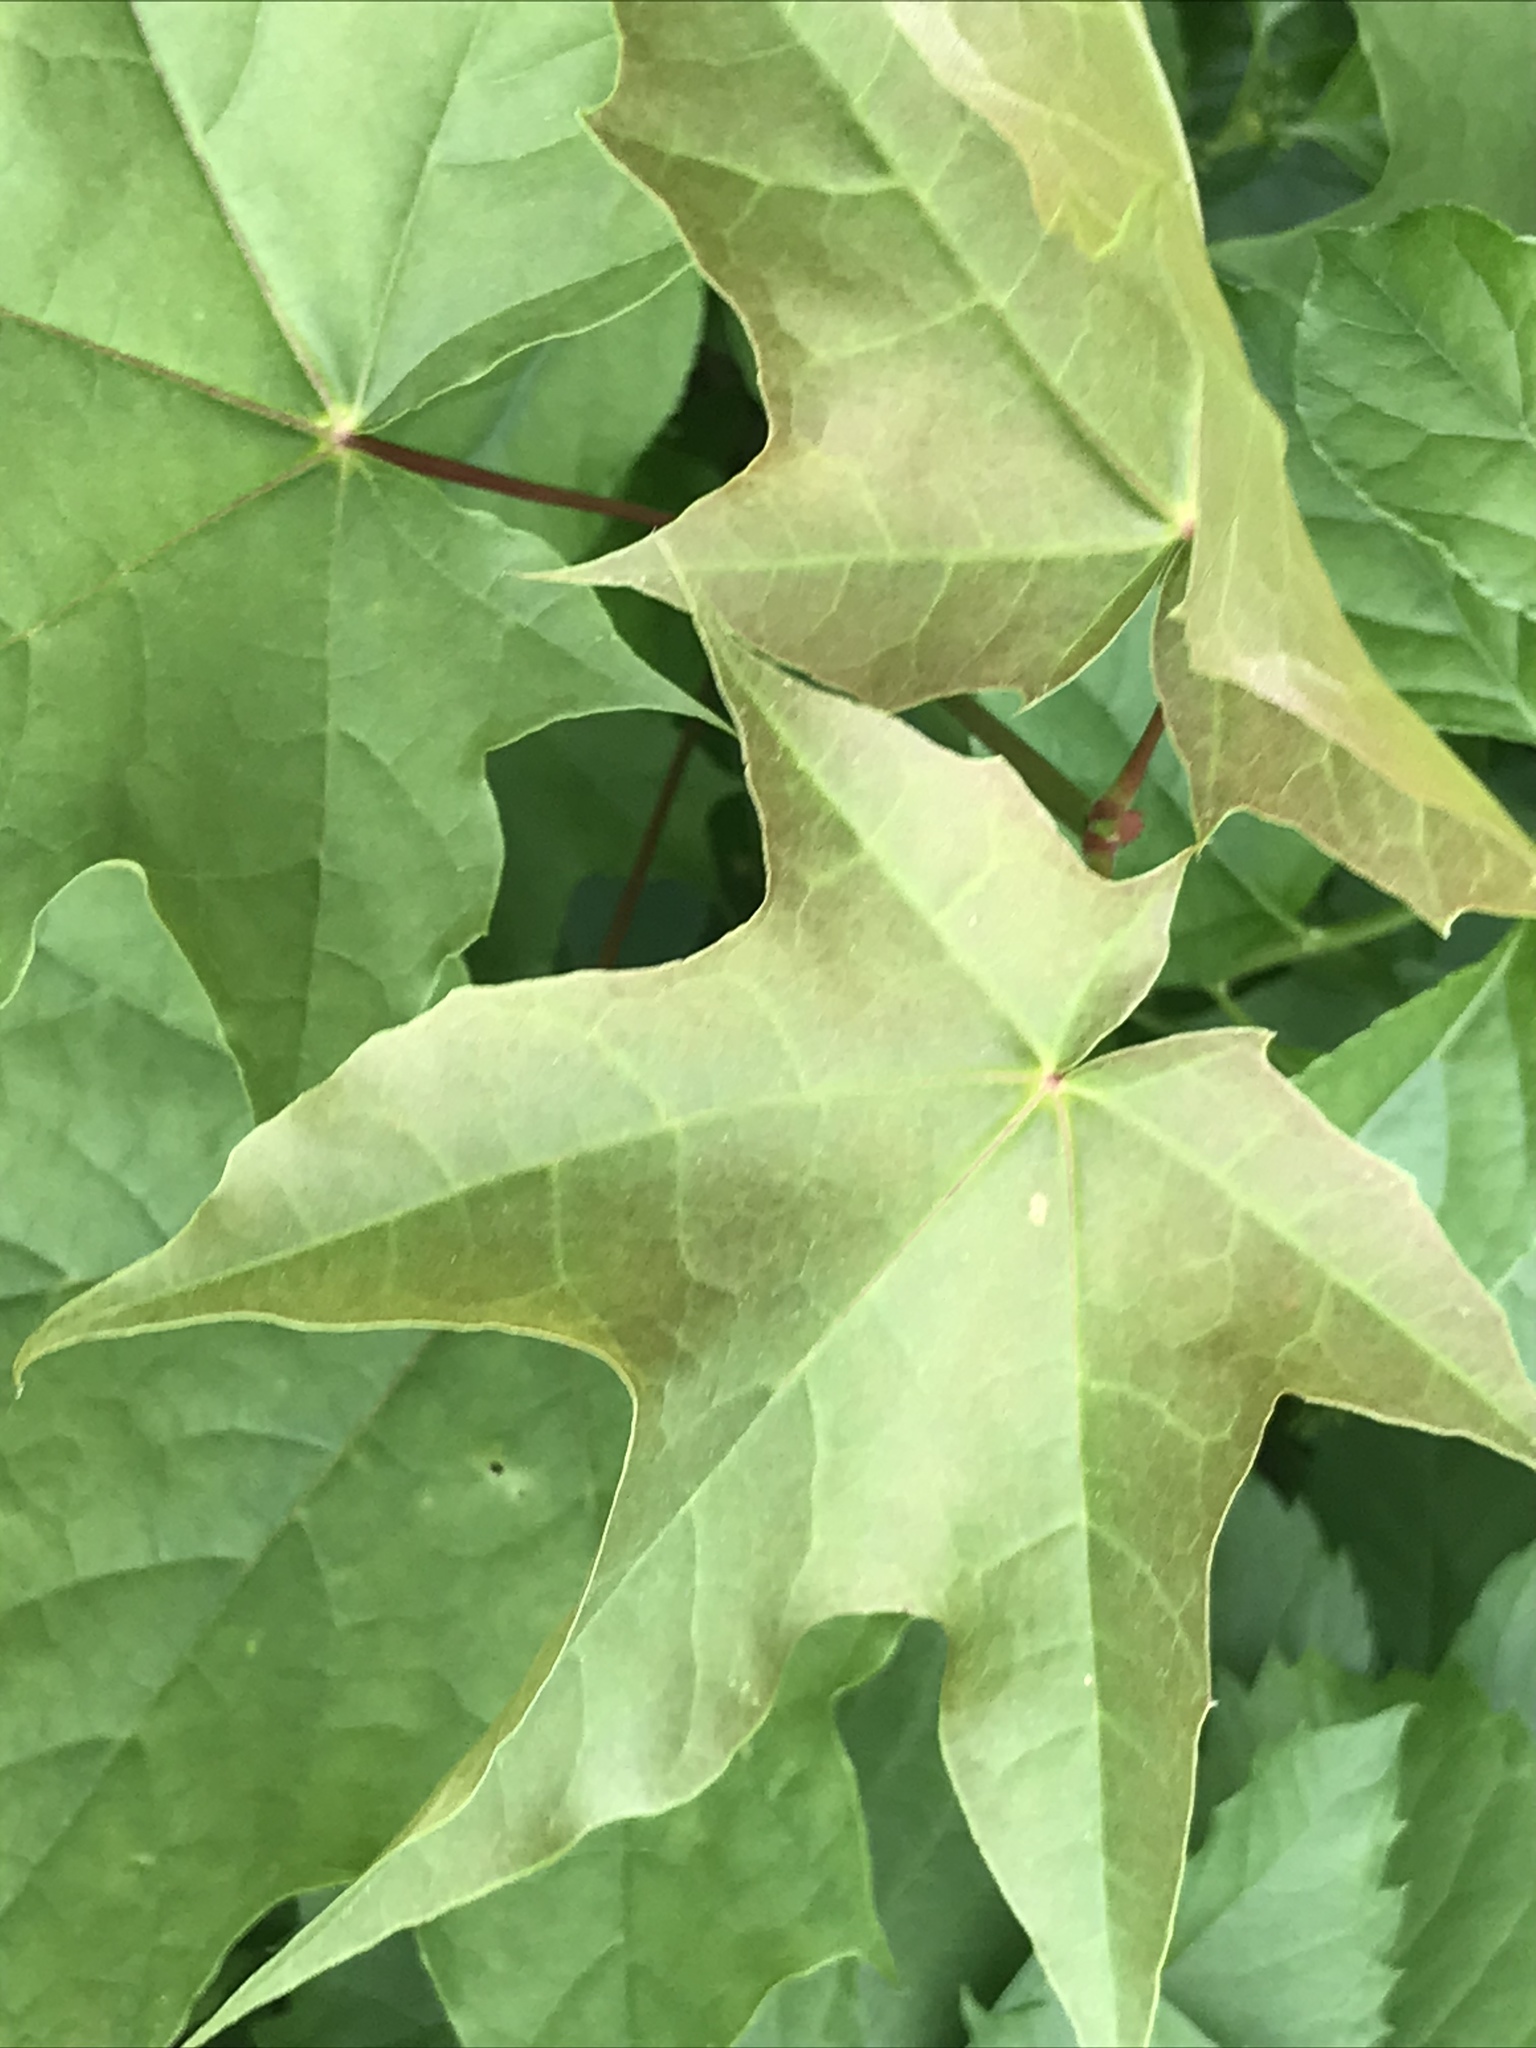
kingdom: Plantae
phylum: Tracheophyta
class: Magnoliopsida
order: Sapindales
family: Sapindaceae
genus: Acer
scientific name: Acer platanoides
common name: Norway maple
